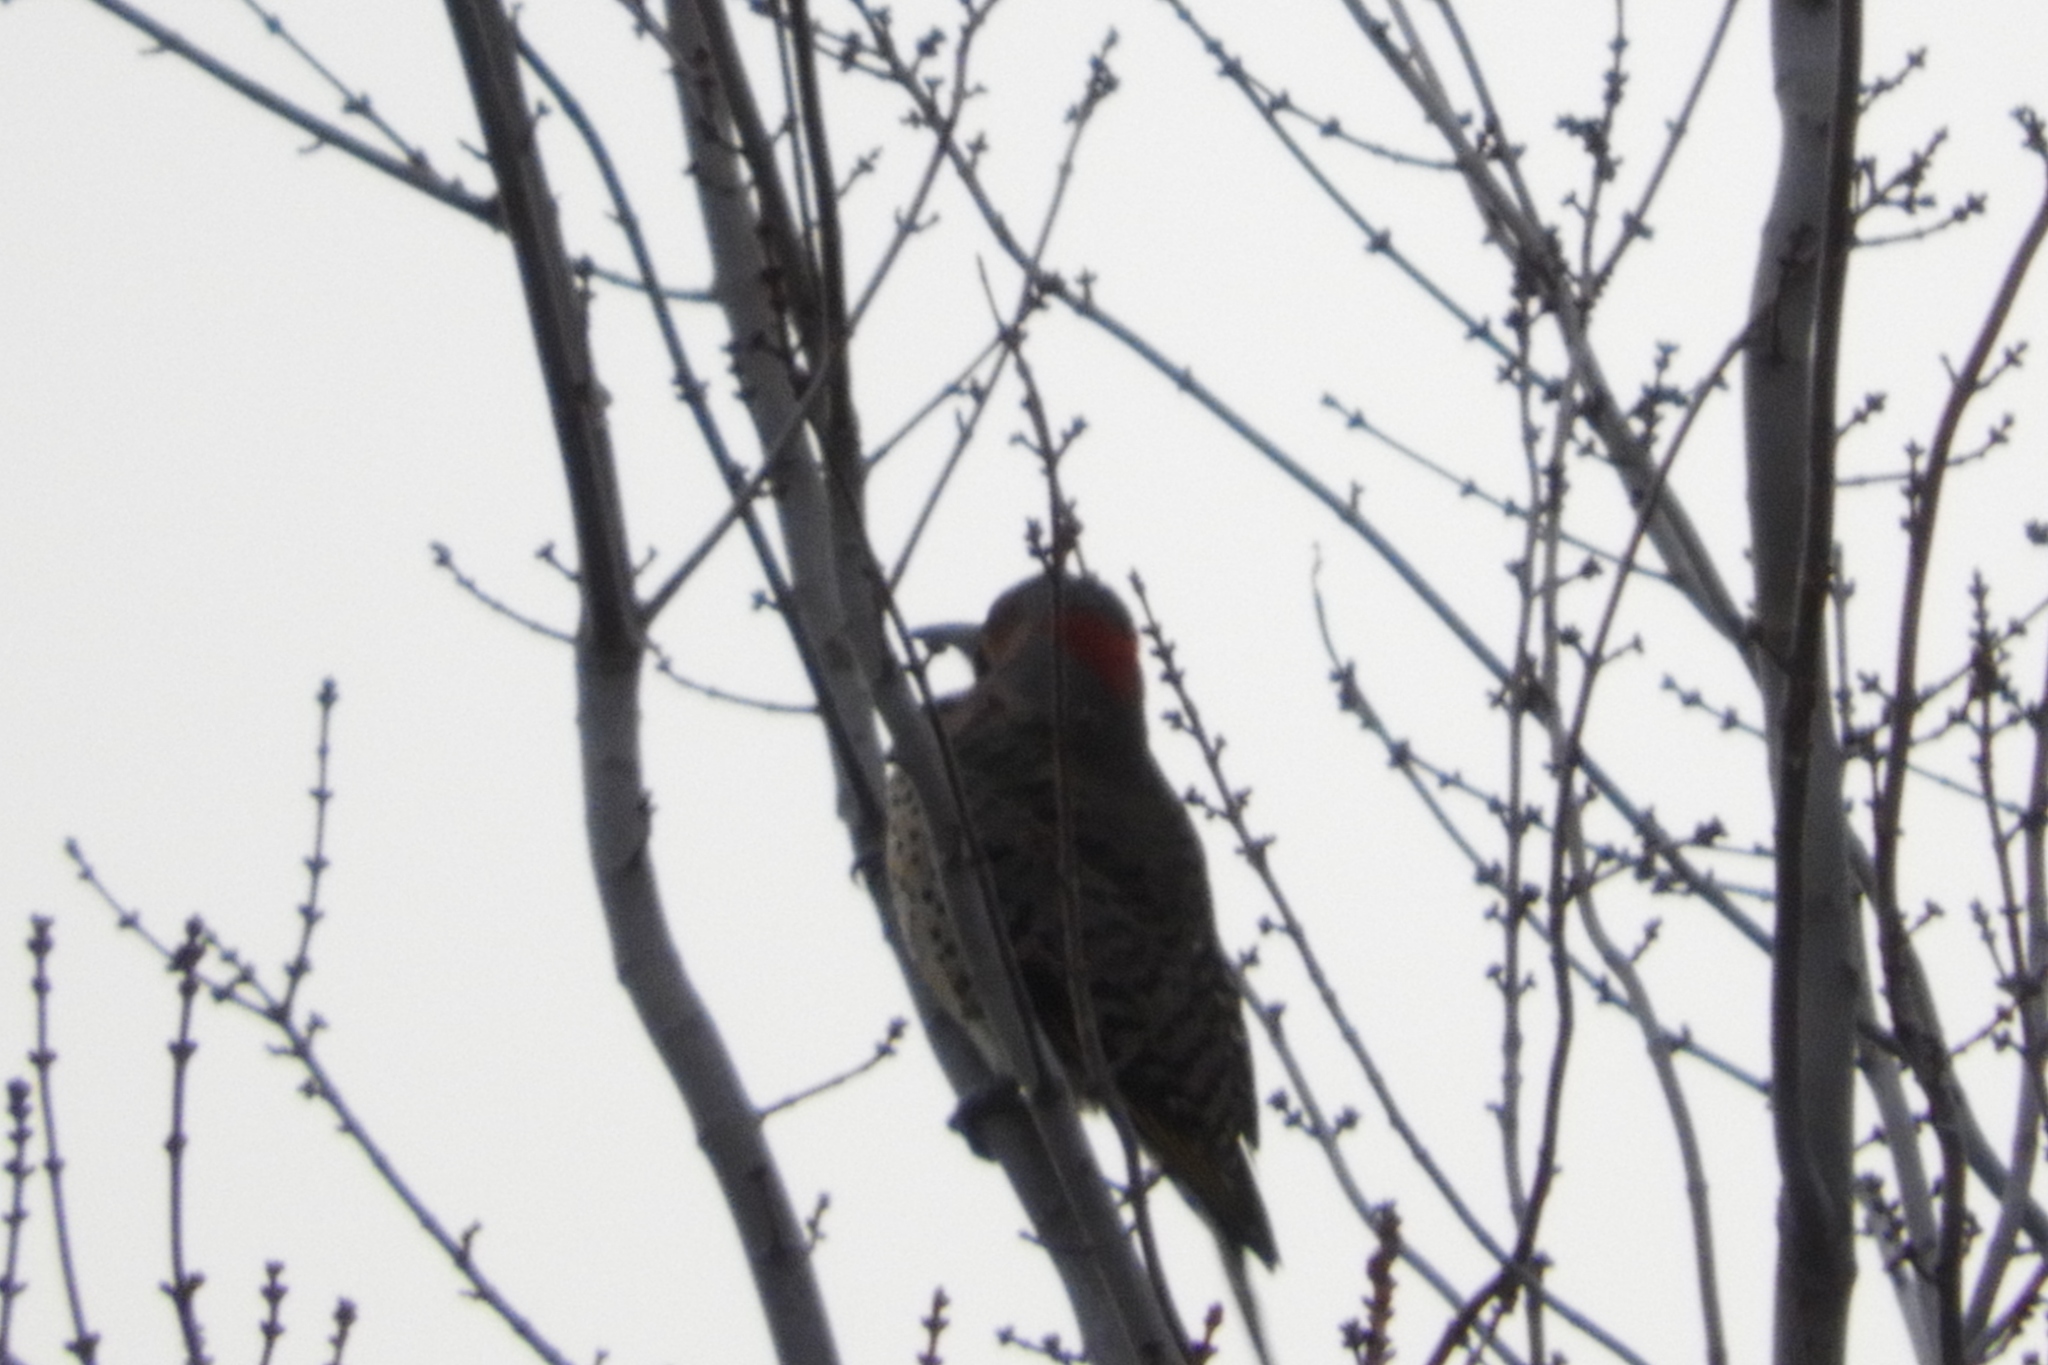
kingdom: Animalia
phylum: Chordata
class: Aves
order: Piciformes
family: Picidae
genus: Colaptes
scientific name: Colaptes auratus
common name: Northern flicker
